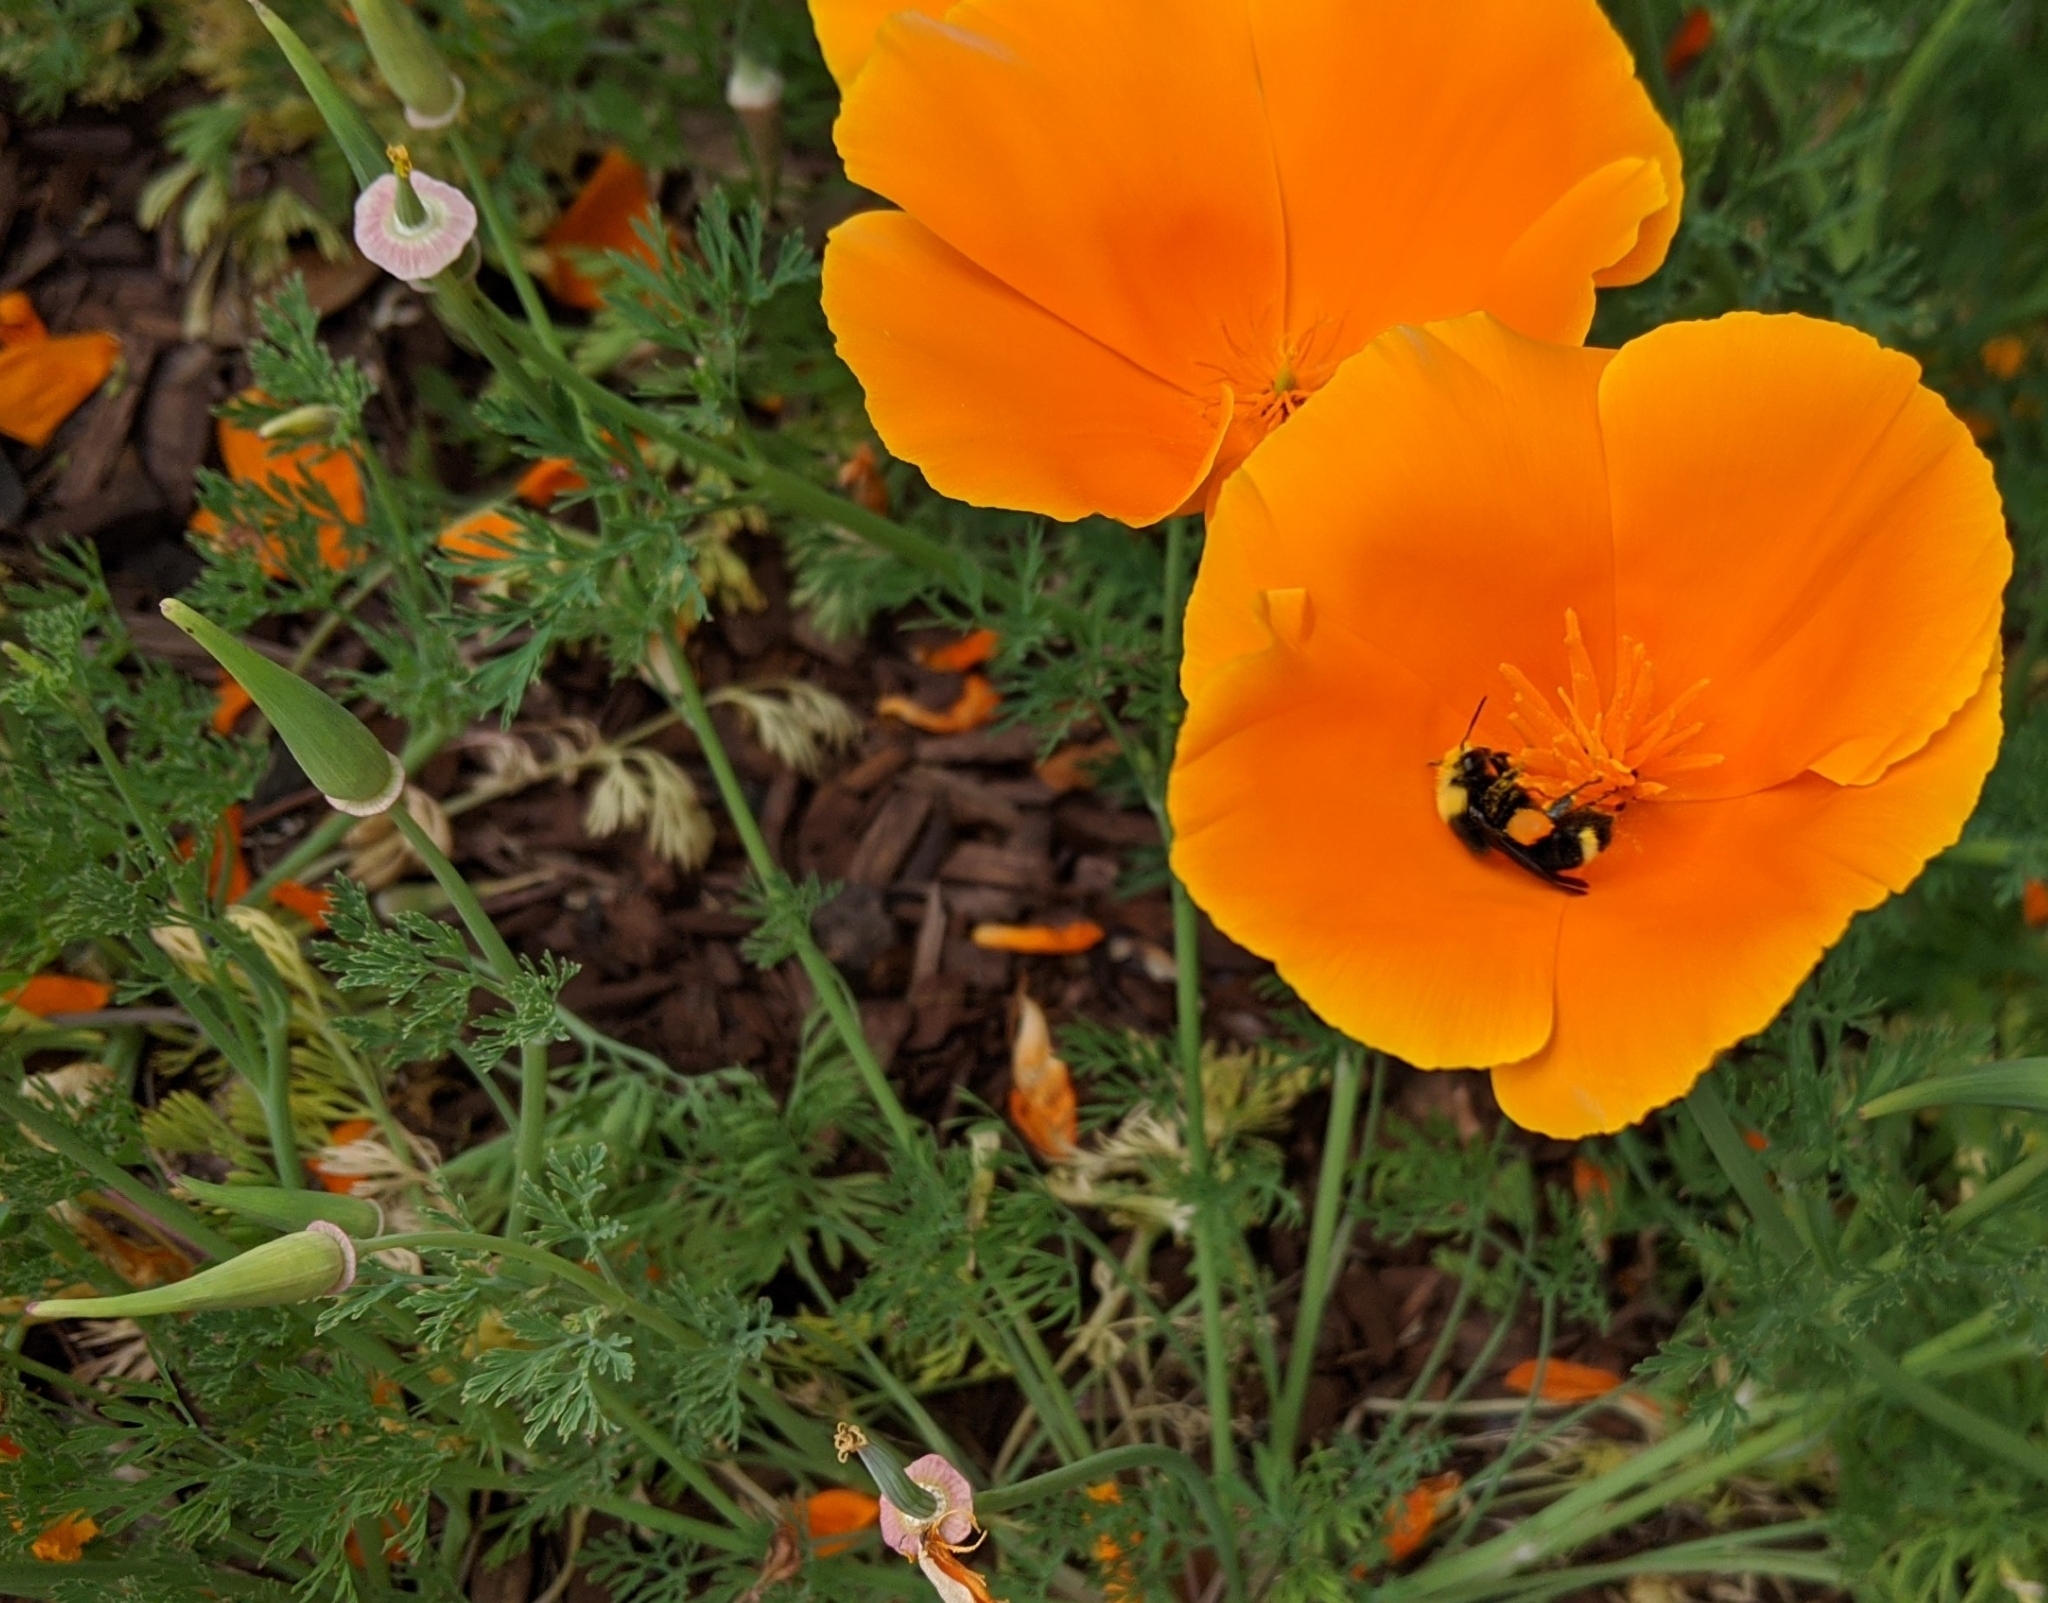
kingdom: Animalia
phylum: Arthropoda
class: Insecta
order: Hymenoptera
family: Apidae
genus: Pyrobombus
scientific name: Pyrobombus
